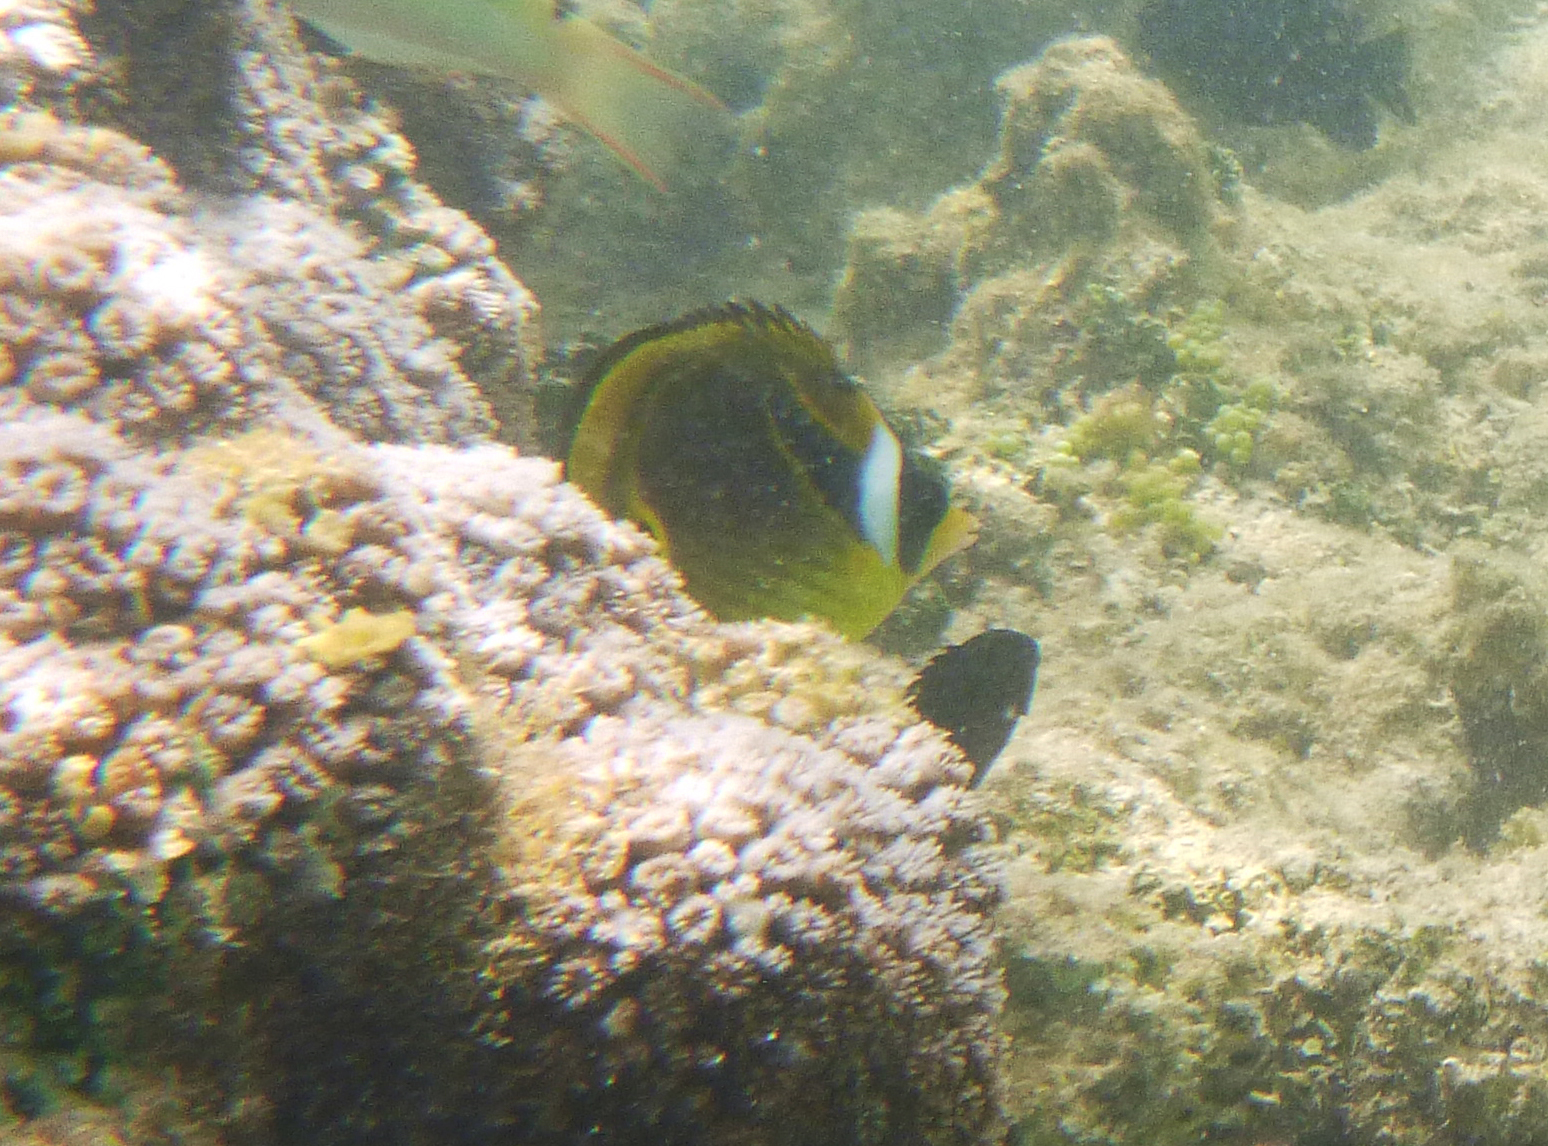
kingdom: Animalia
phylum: Chordata
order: Perciformes
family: Chaetodontidae
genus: Chaetodon
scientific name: Chaetodon lunula
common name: Raccoon butterflyfish
